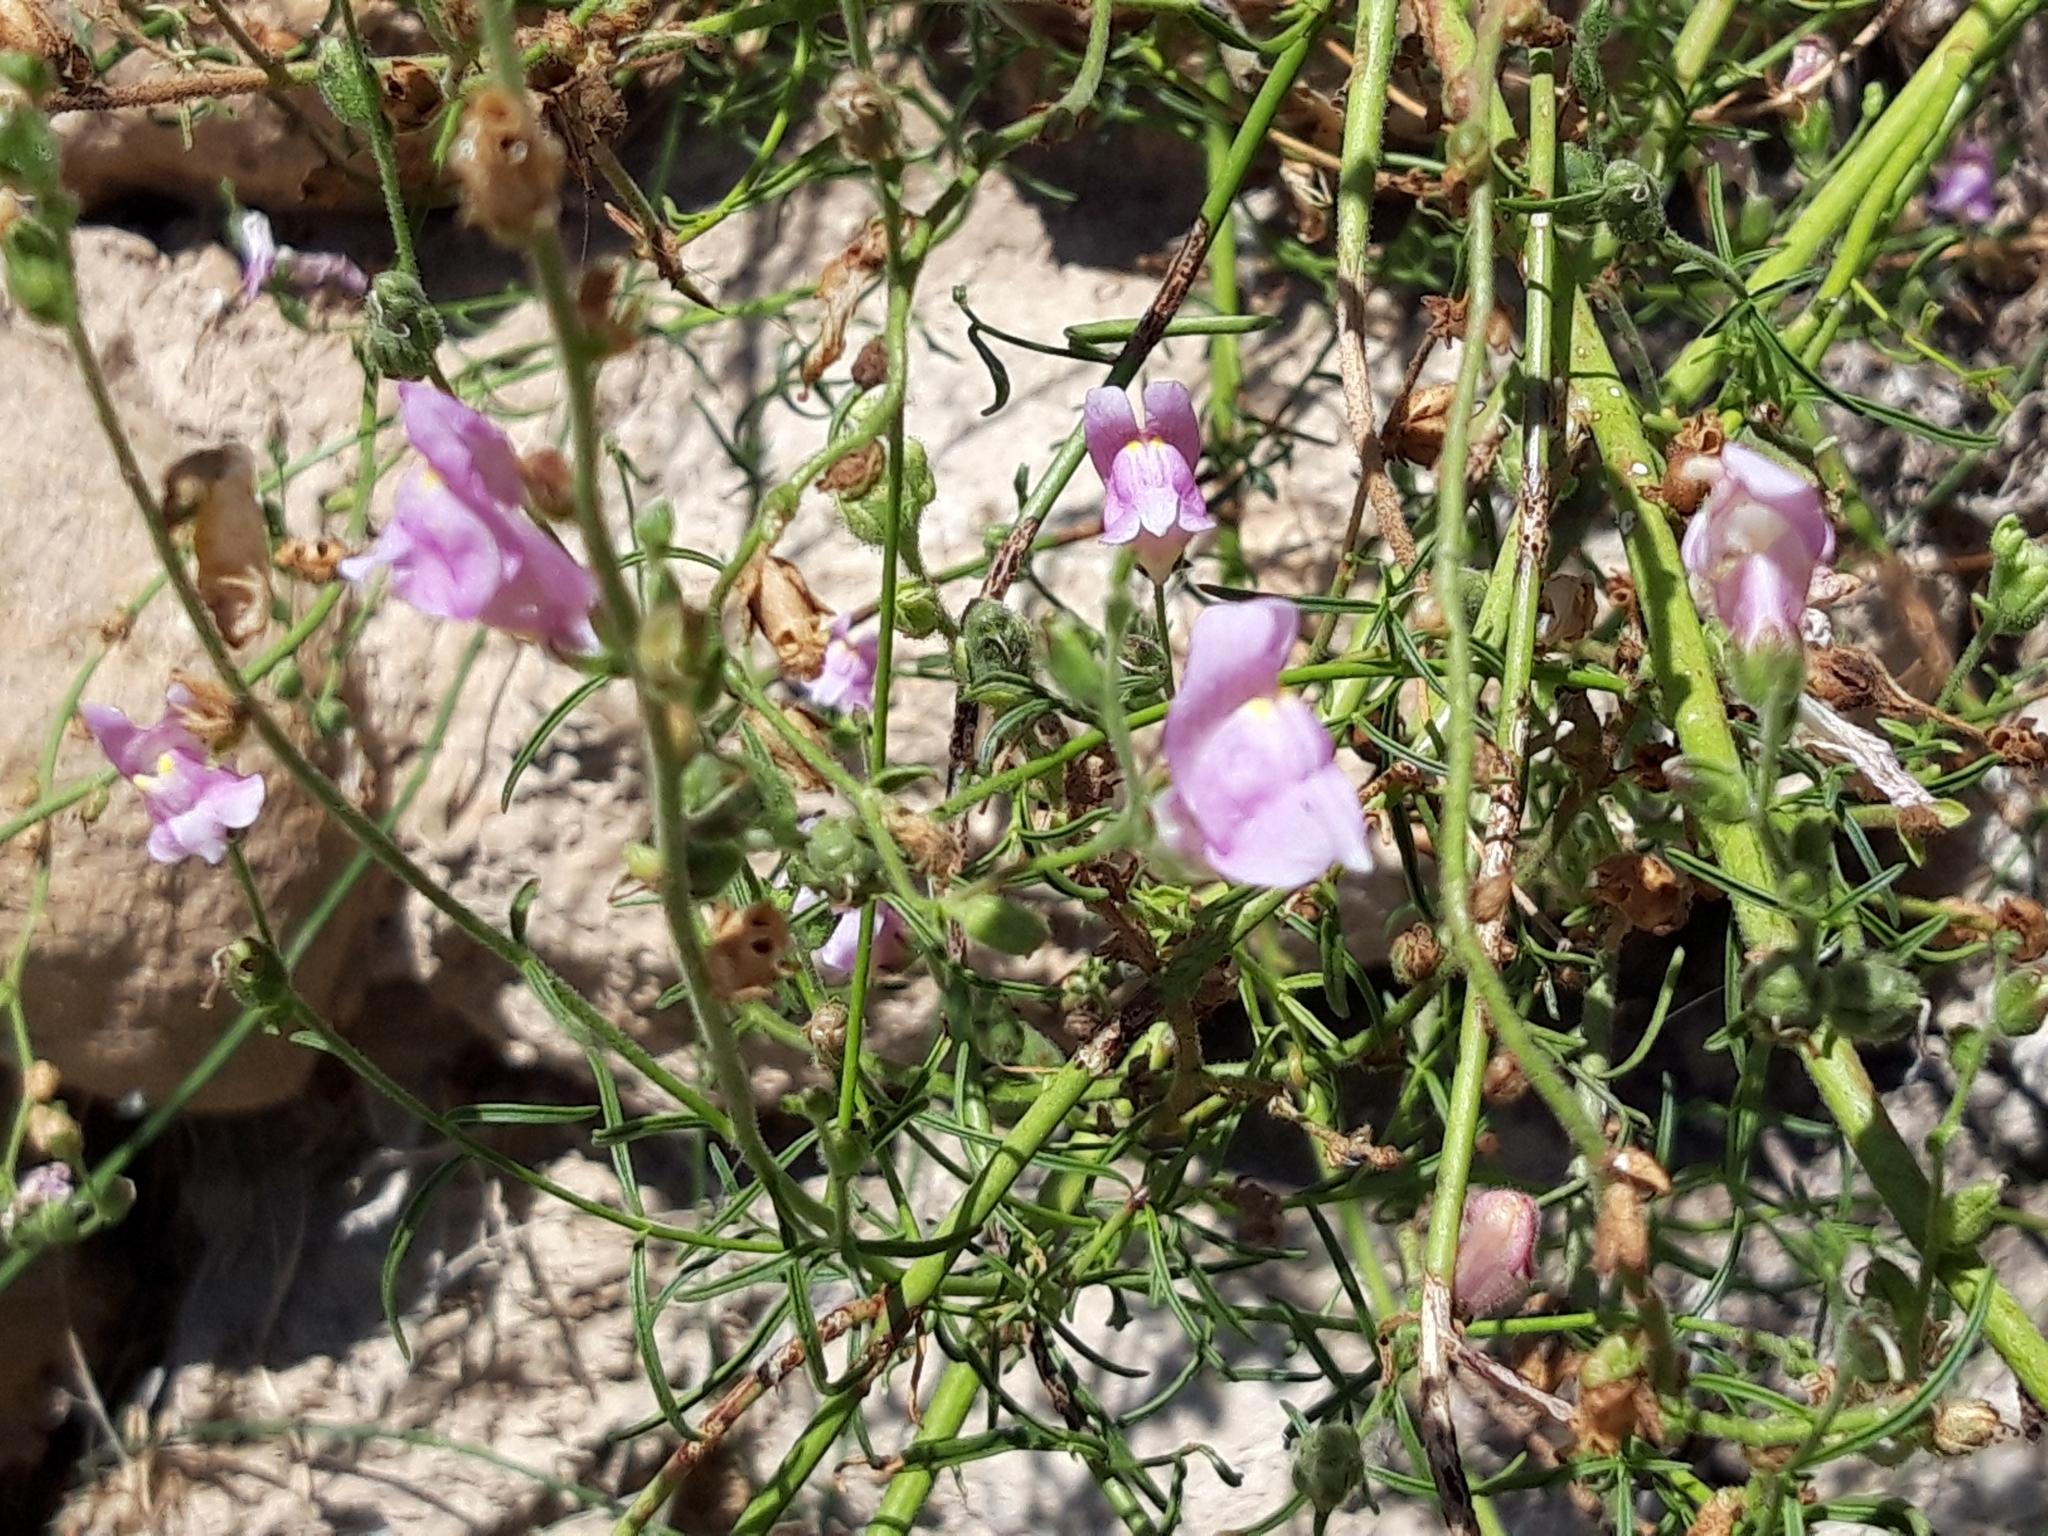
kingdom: Plantae
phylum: Tracheophyta
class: Magnoliopsida
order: Lamiales
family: Plantaginaceae
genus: Antirrhinum
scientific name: Antirrhinum litigiosum
